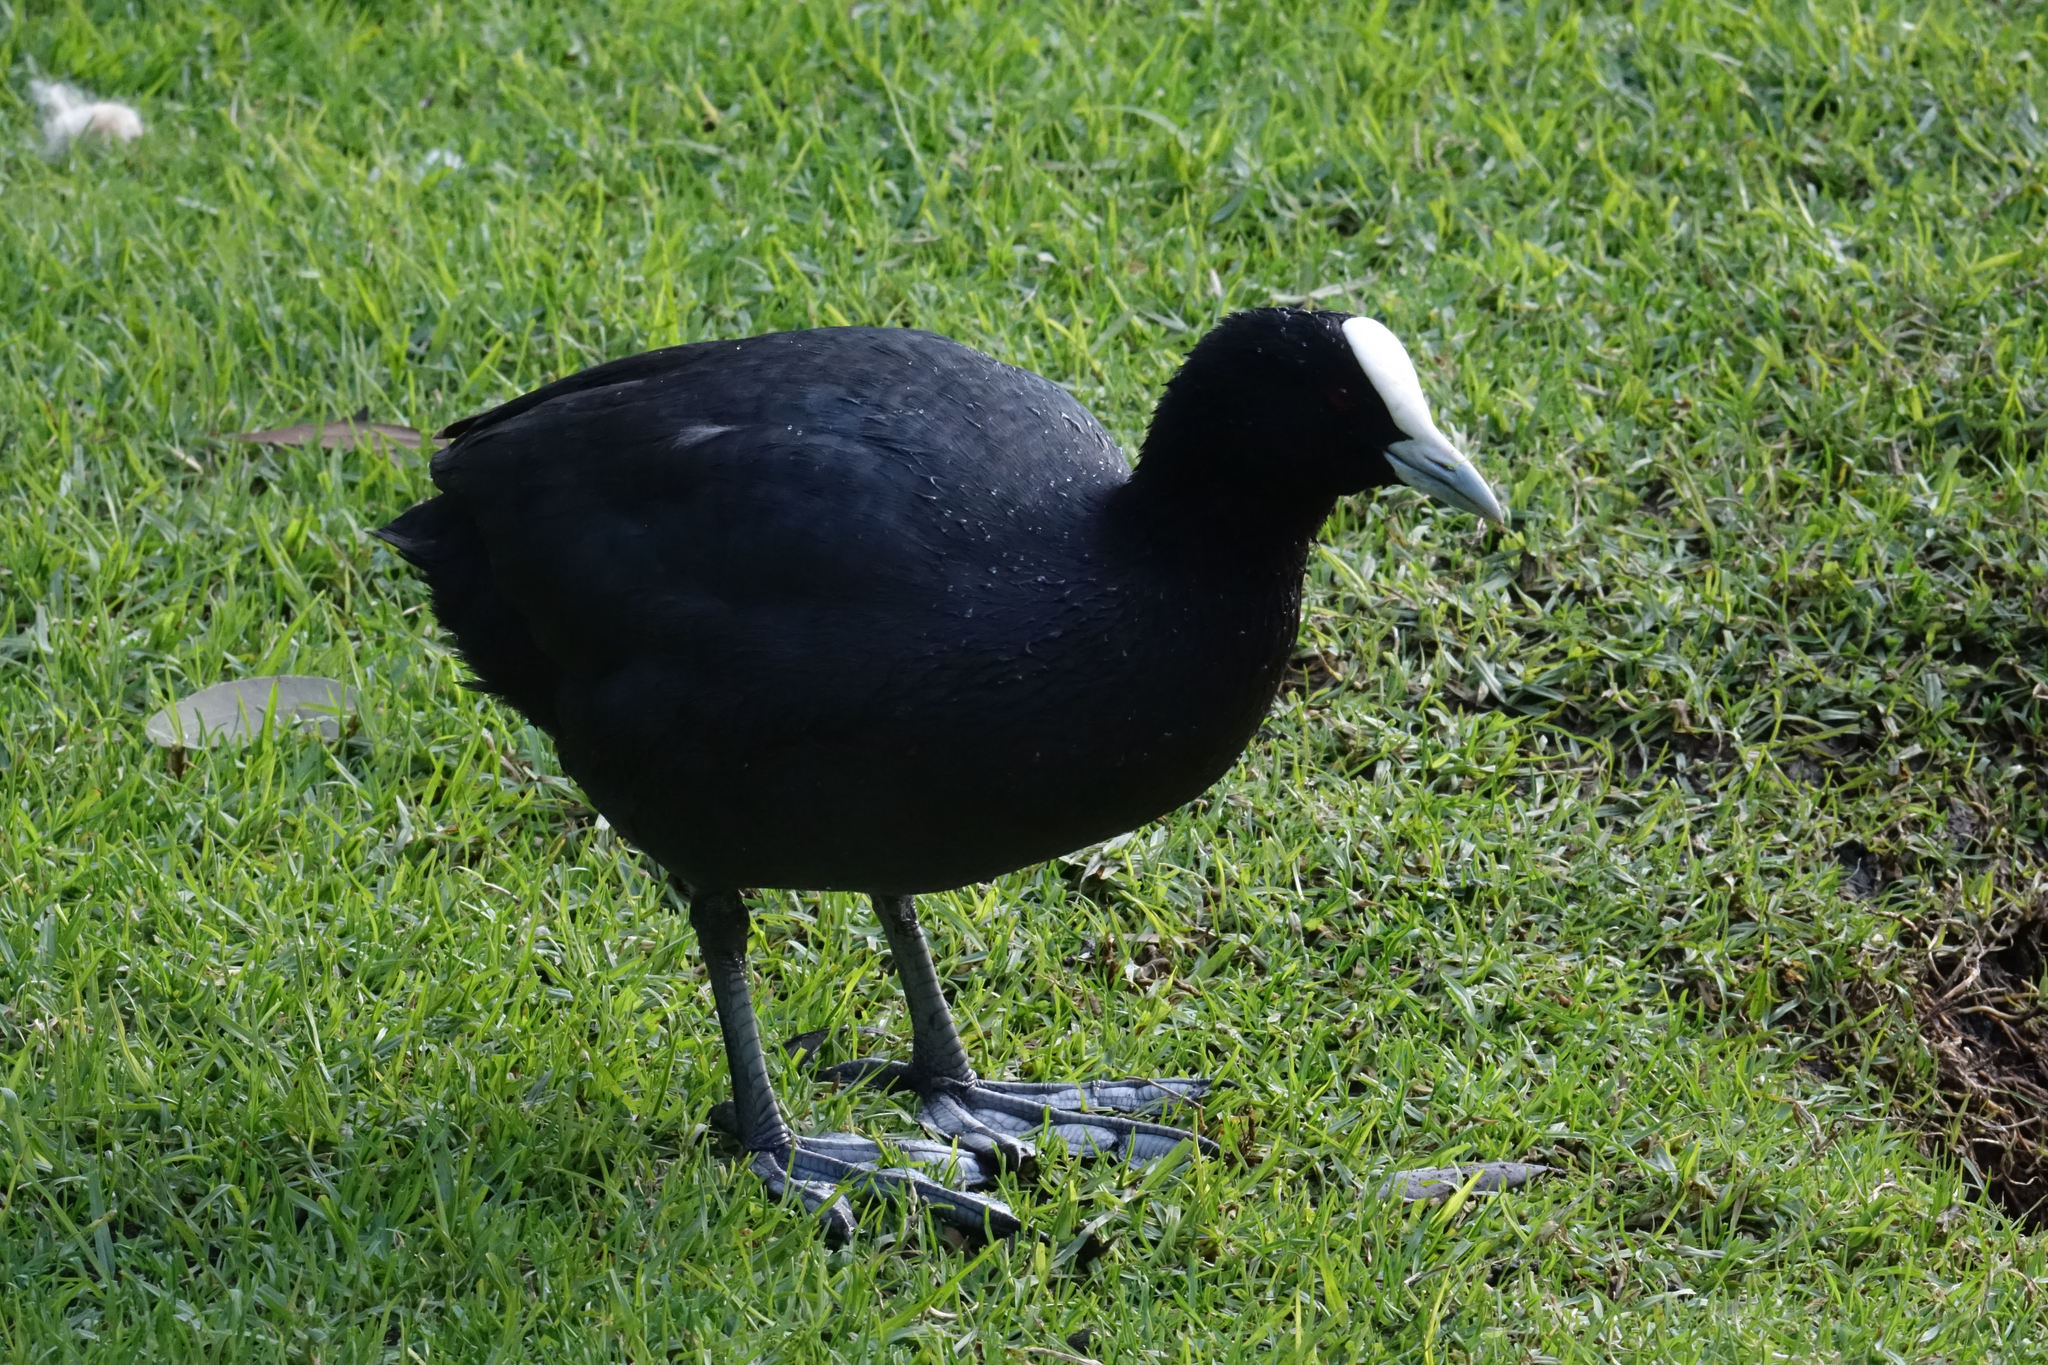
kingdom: Animalia
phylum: Chordata
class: Aves
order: Gruiformes
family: Rallidae
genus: Fulica
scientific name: Fulica atra
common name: Eurasian coot
